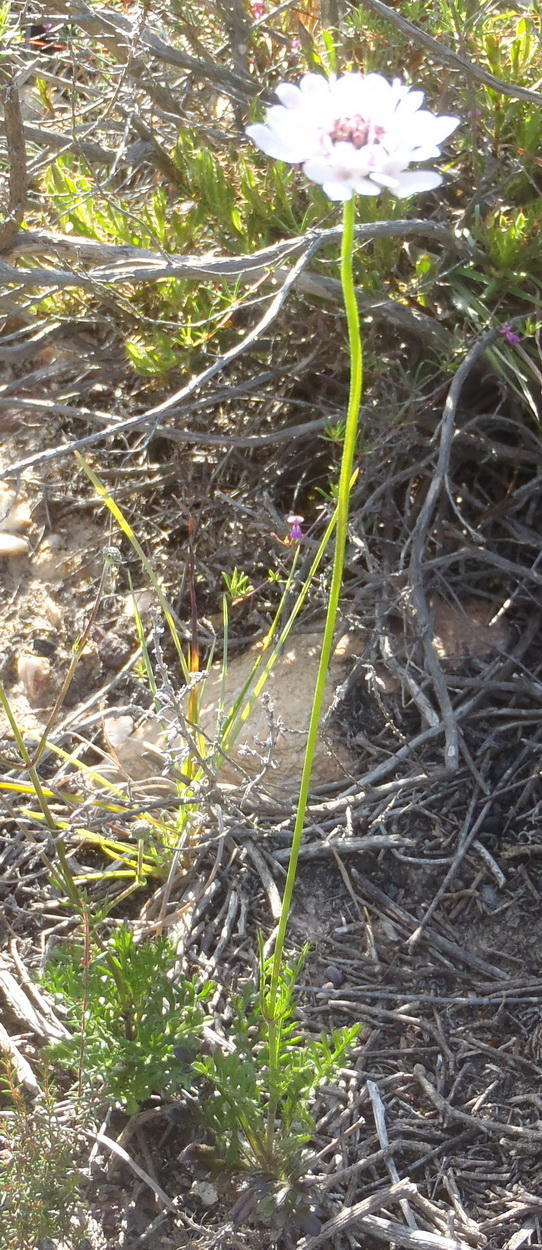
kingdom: Plantae
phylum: Tracheophyta
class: Magnoliopsida
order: Dipsacales
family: Caprifoliaceae
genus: Scabiosa
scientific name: Scabiosa columbaria
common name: Small scabious
